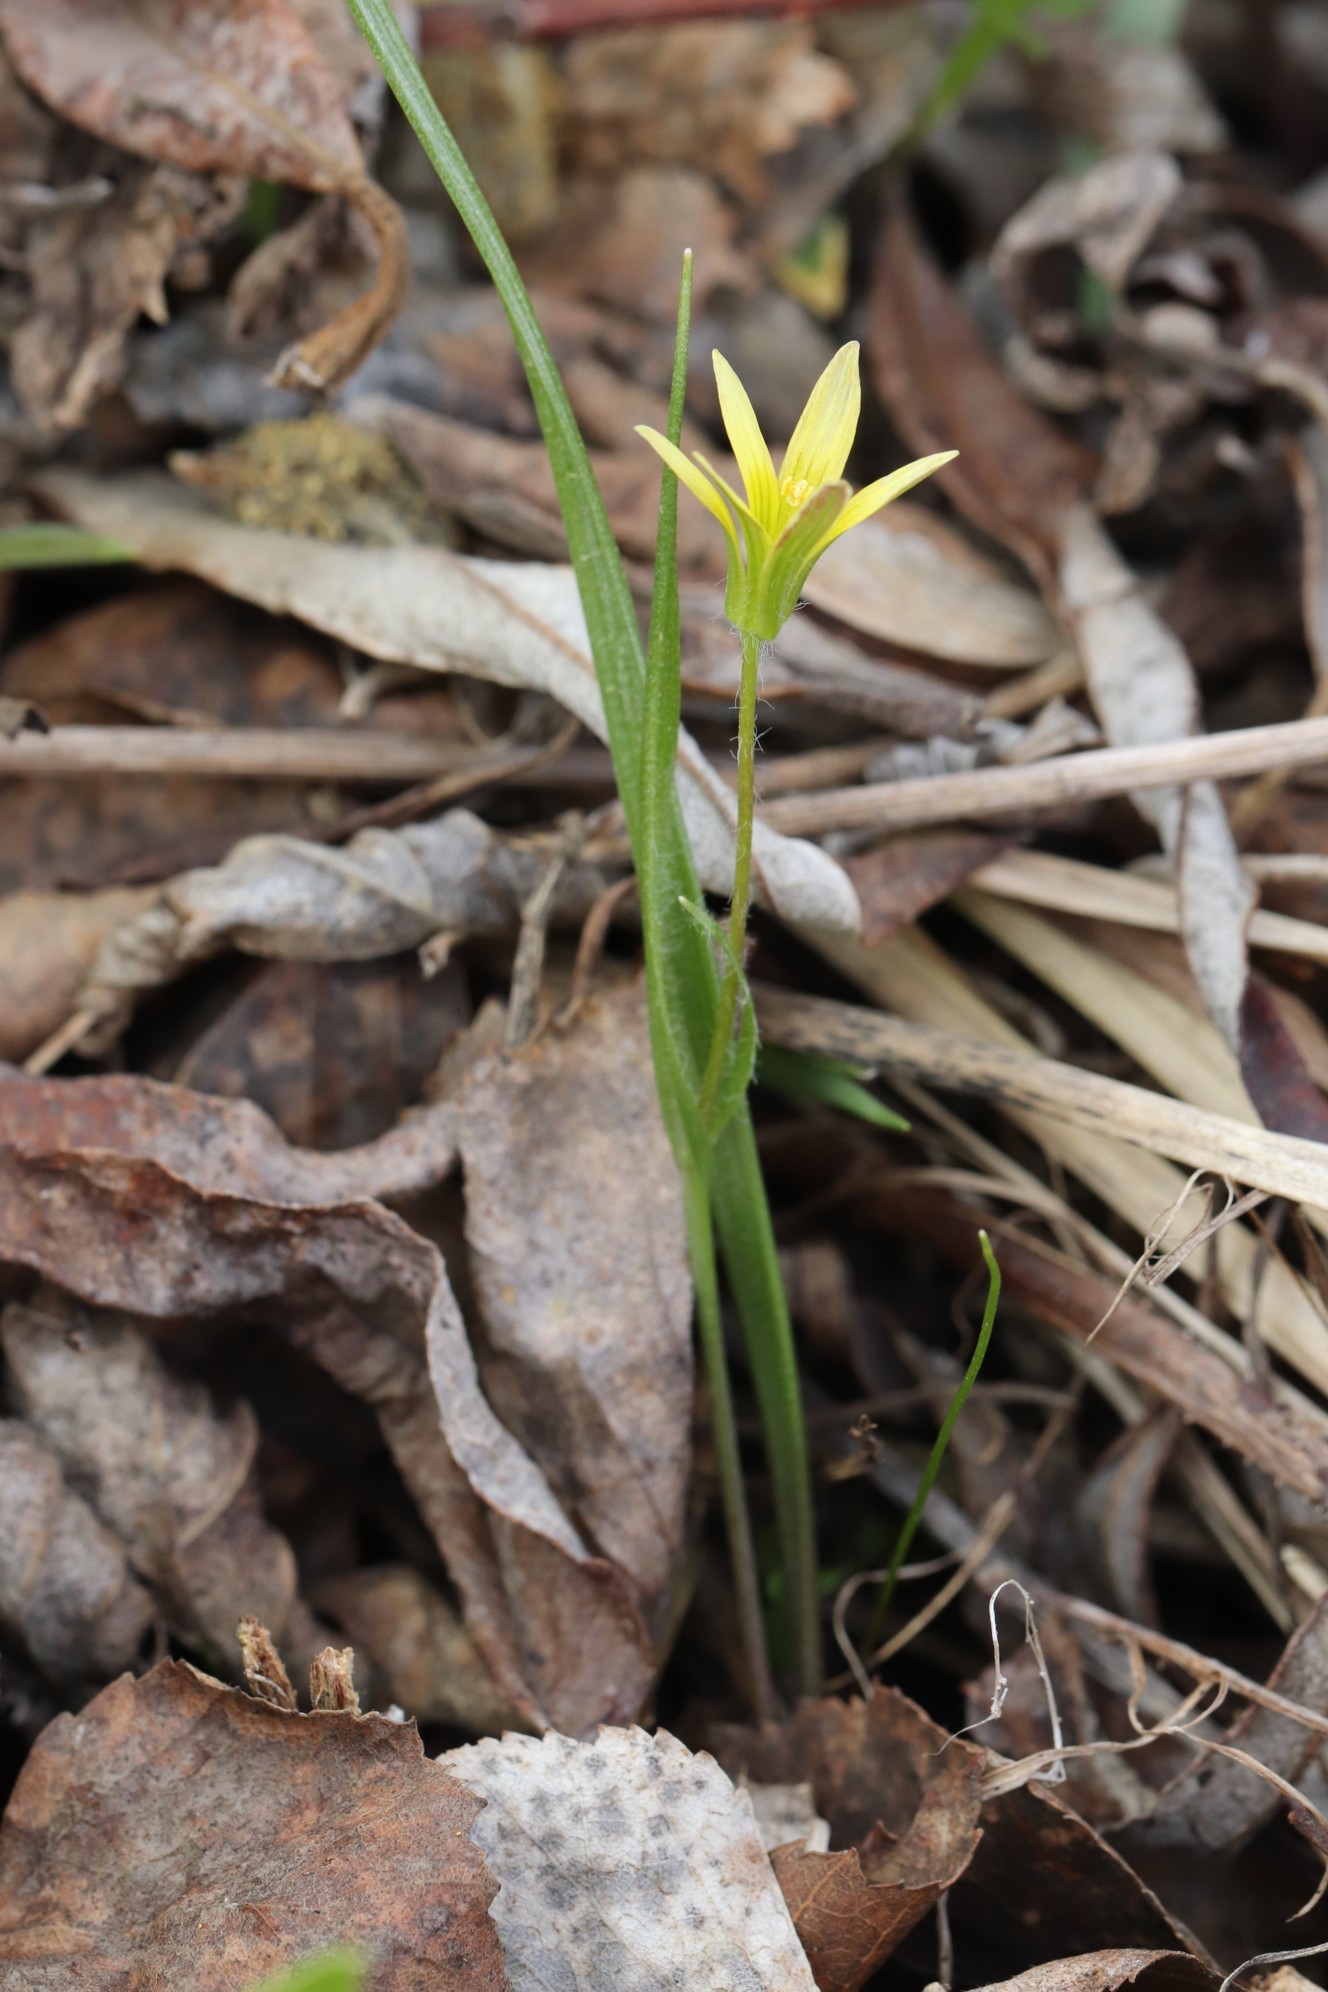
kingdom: Plantae
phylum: Tracheophyta
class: Liliopsida
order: Liliales
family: Liliaceae
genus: Gagea
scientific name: Gagea granulosa
